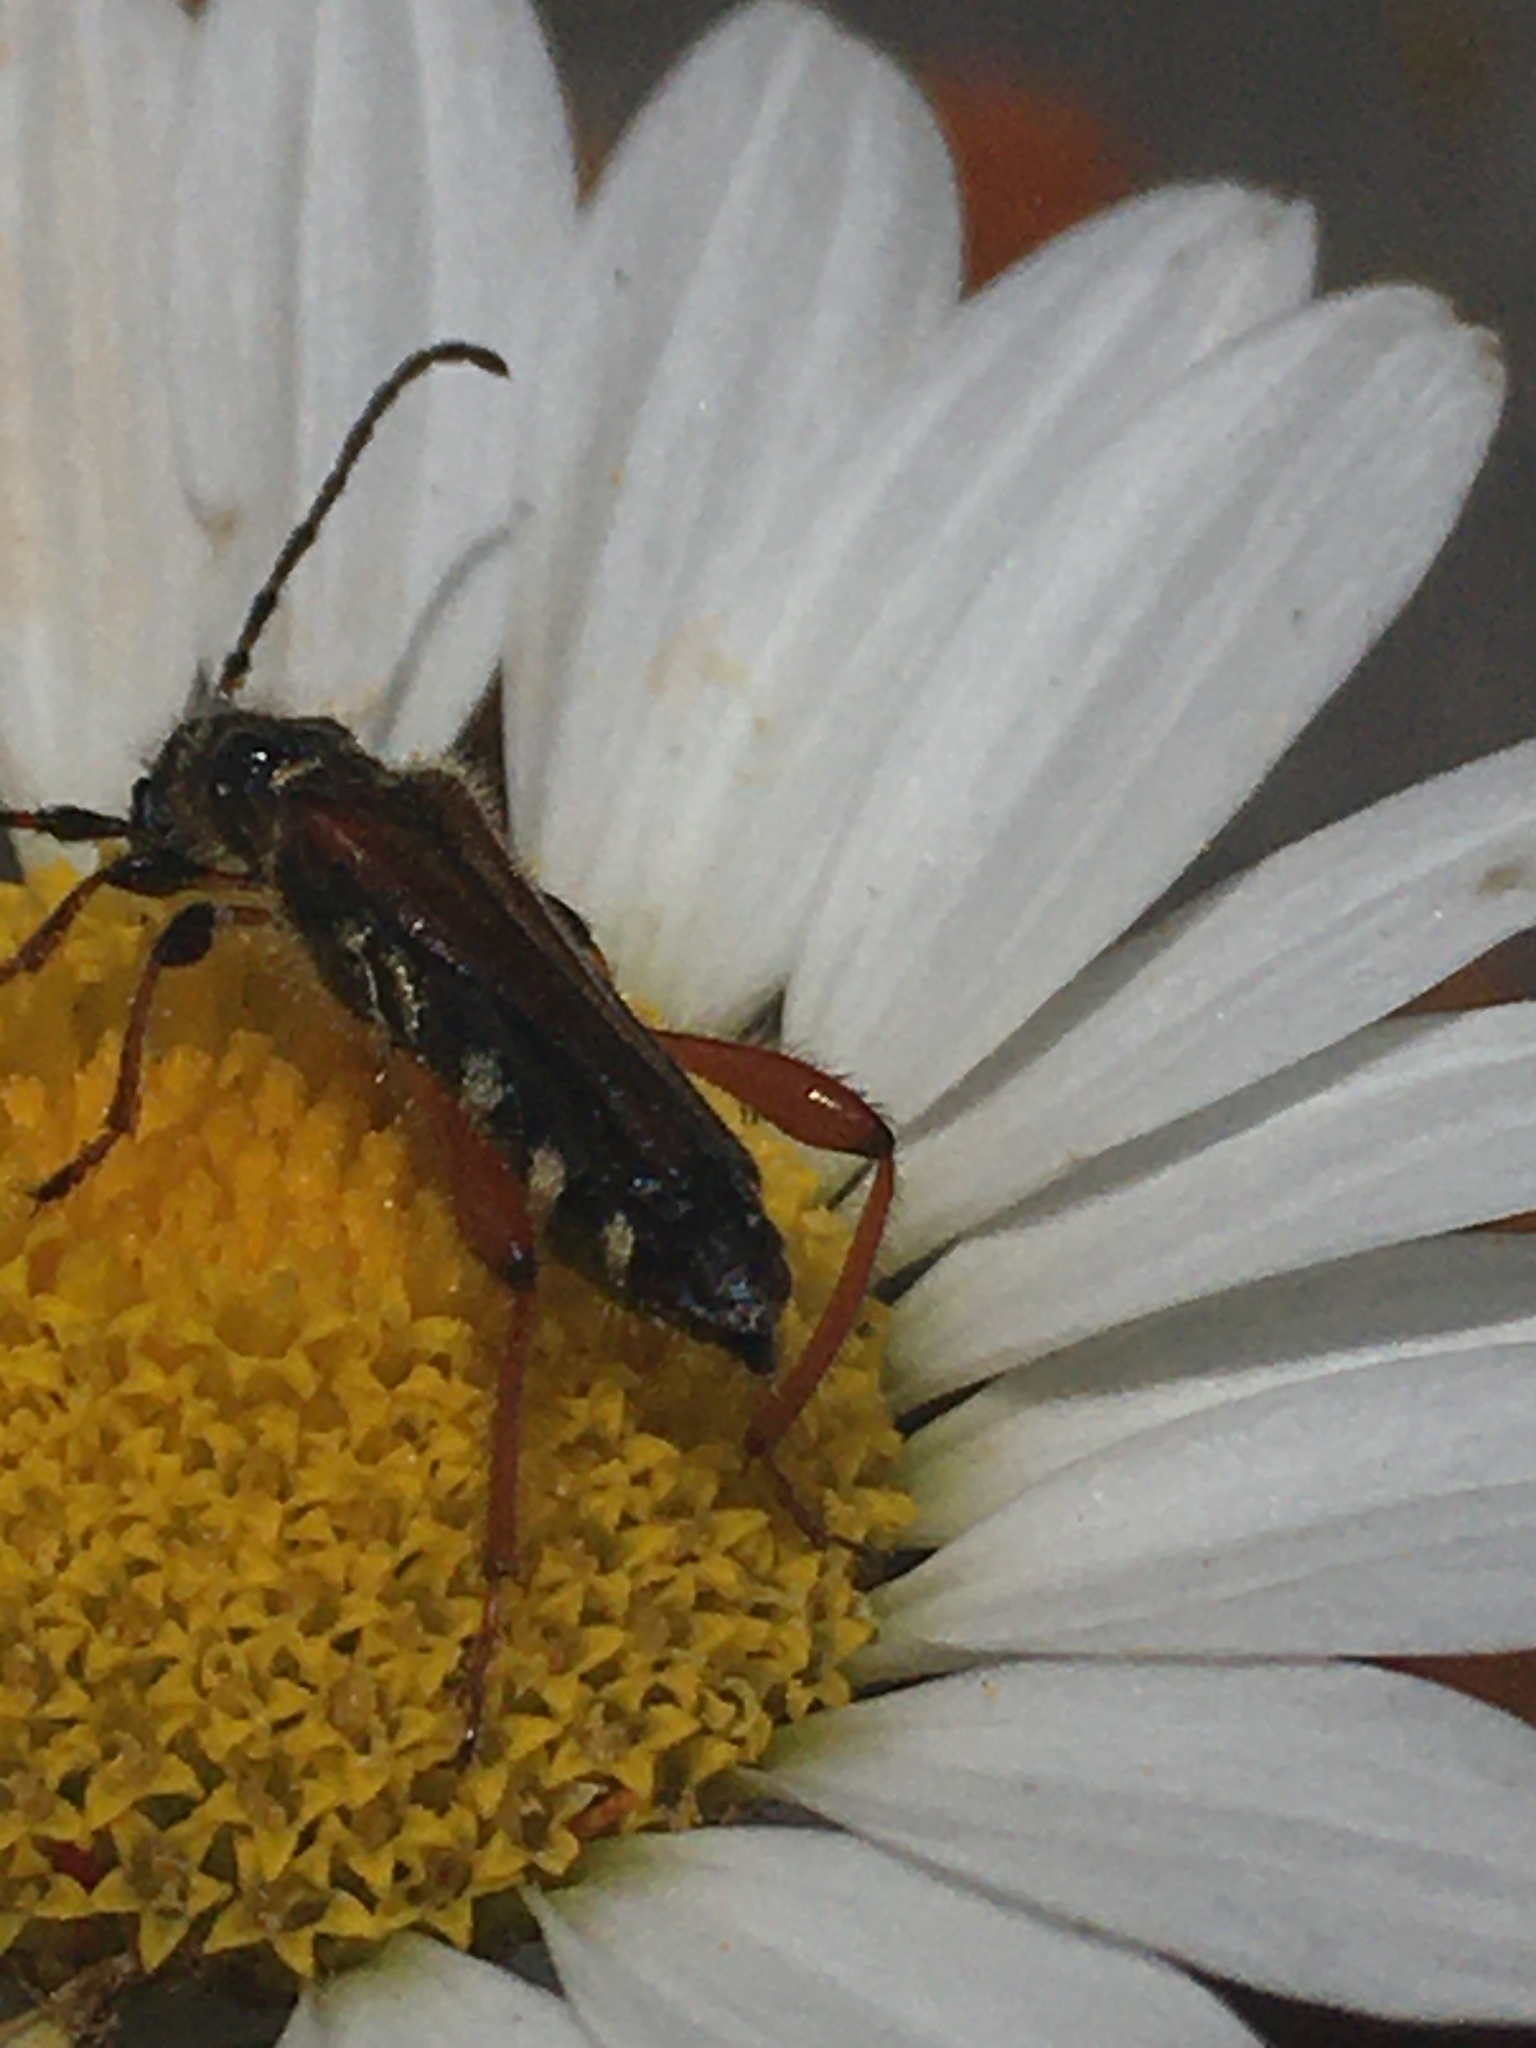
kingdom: Animalia
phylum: Arthropoda
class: Insecta
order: Coleoptera
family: Cerambycidae
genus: Stenopterus
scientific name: Stenopterus rufus
